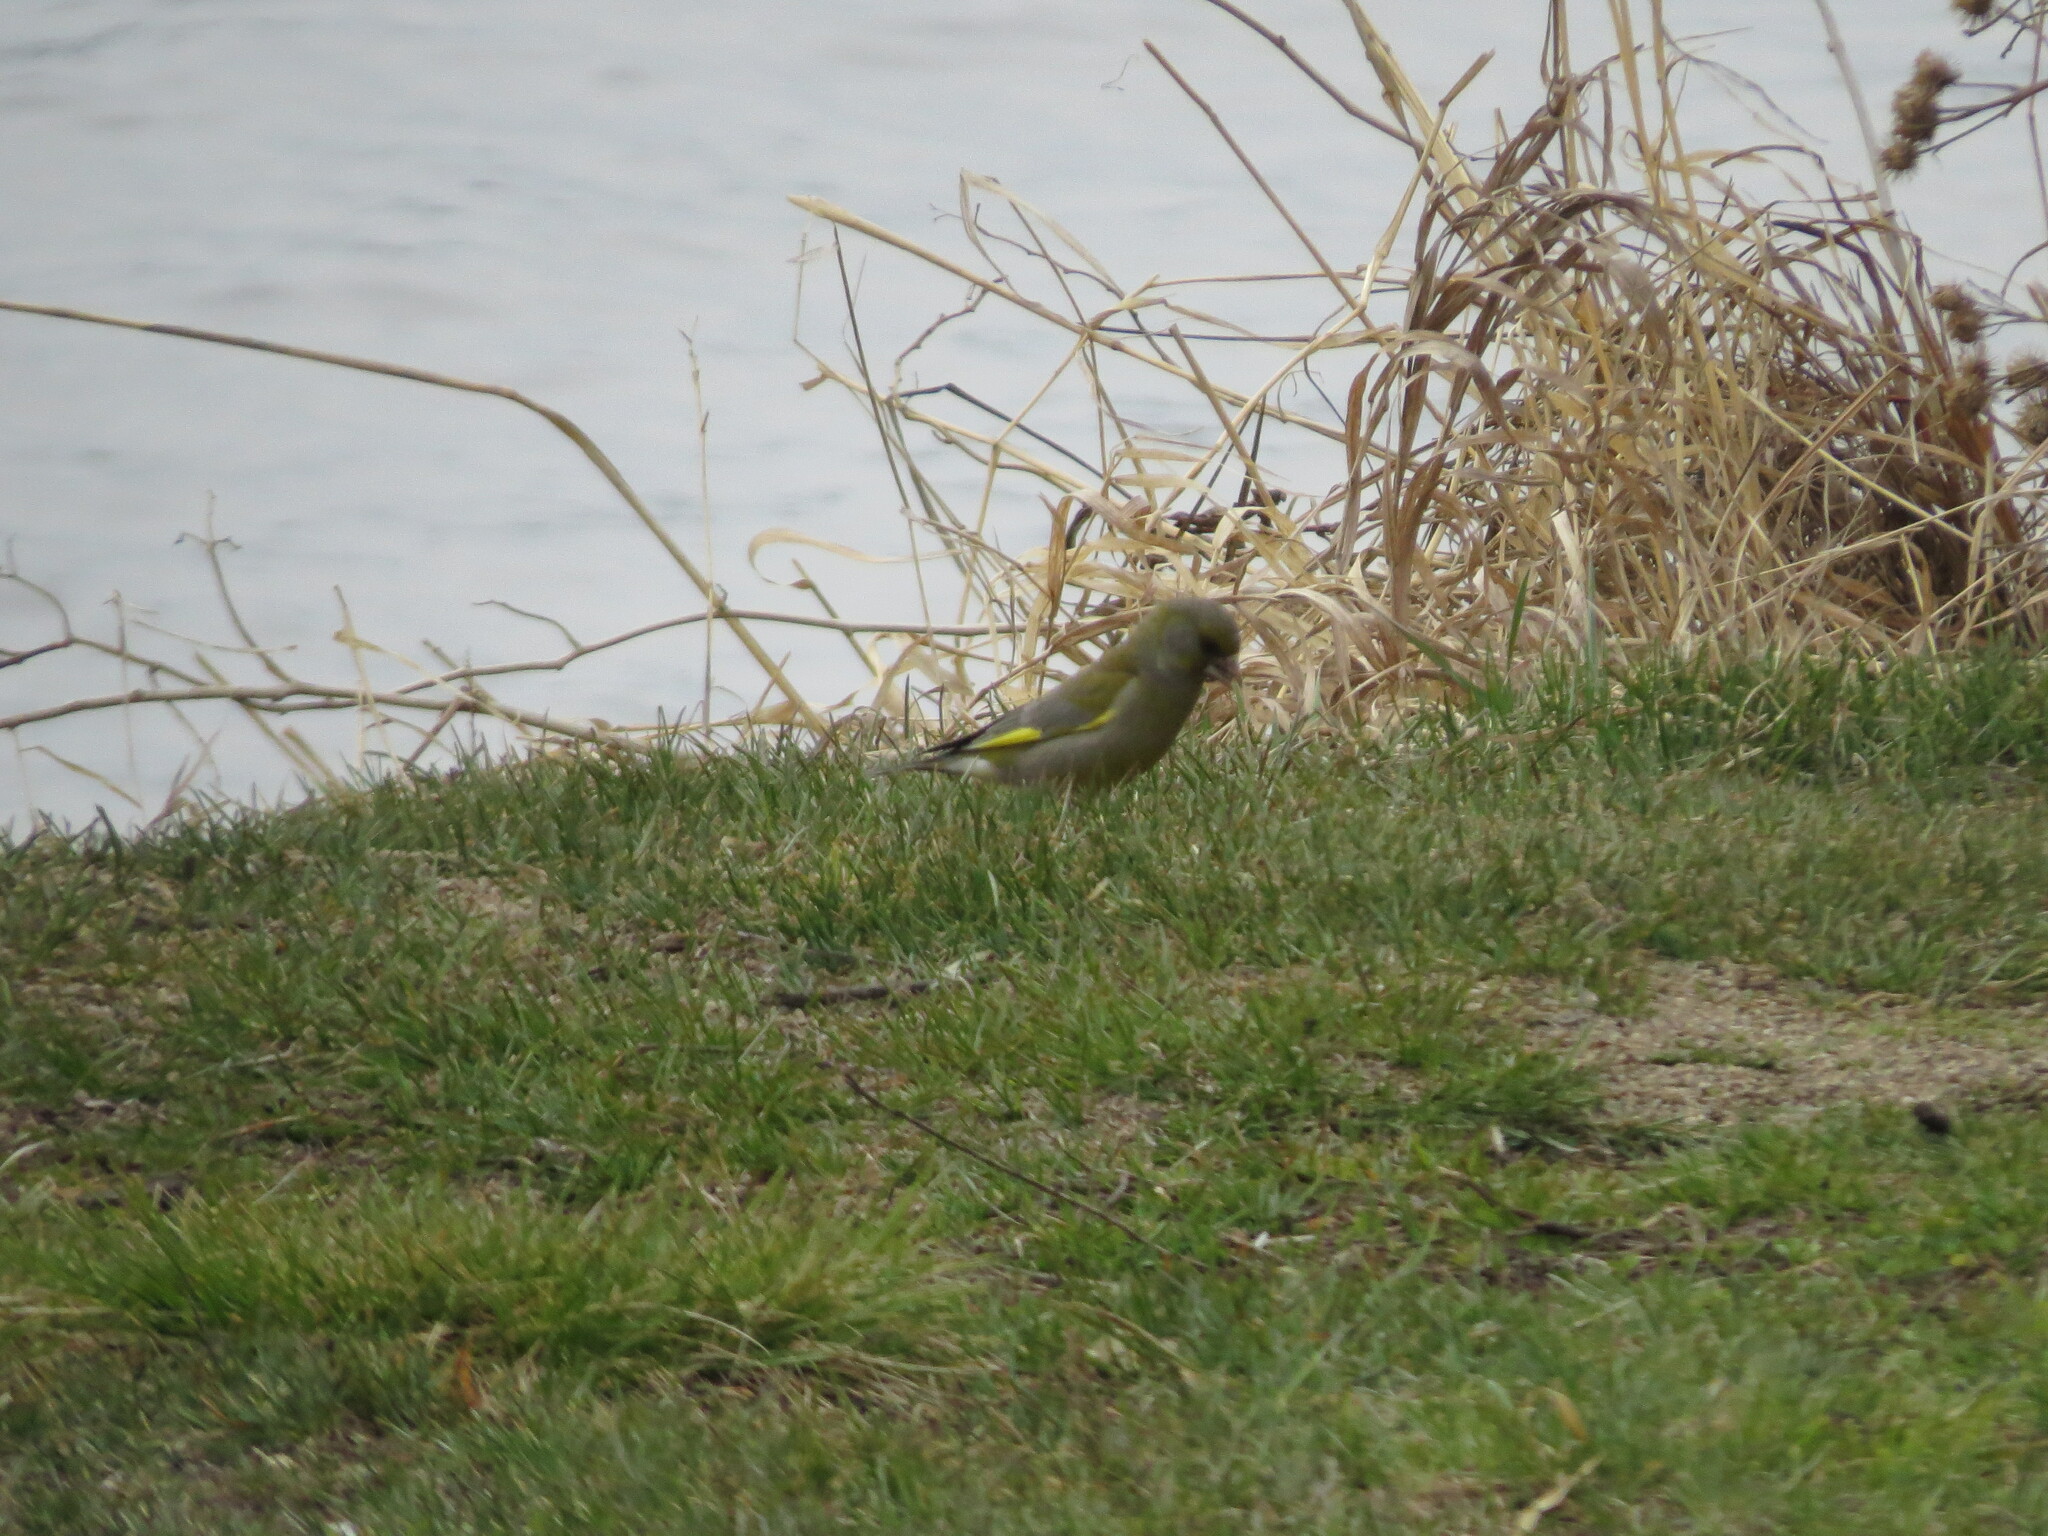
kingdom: Plantae
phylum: Tracheophyta
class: Liliopsida
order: Poales
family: Poaceae
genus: Chloris
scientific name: Chloris chloris
